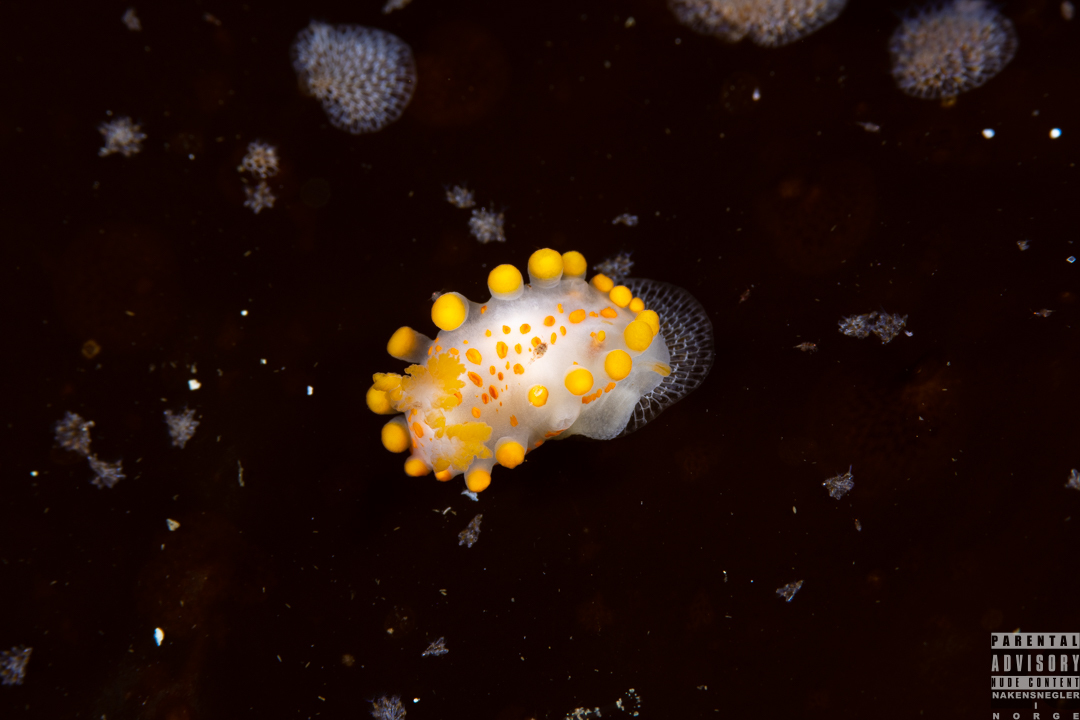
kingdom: Animalia
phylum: Mollusca
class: Gastropoda
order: Nudibranchia
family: Polyceridae
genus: Limacia
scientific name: Limacia clavigera
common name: Orange-clubbed sea slug
